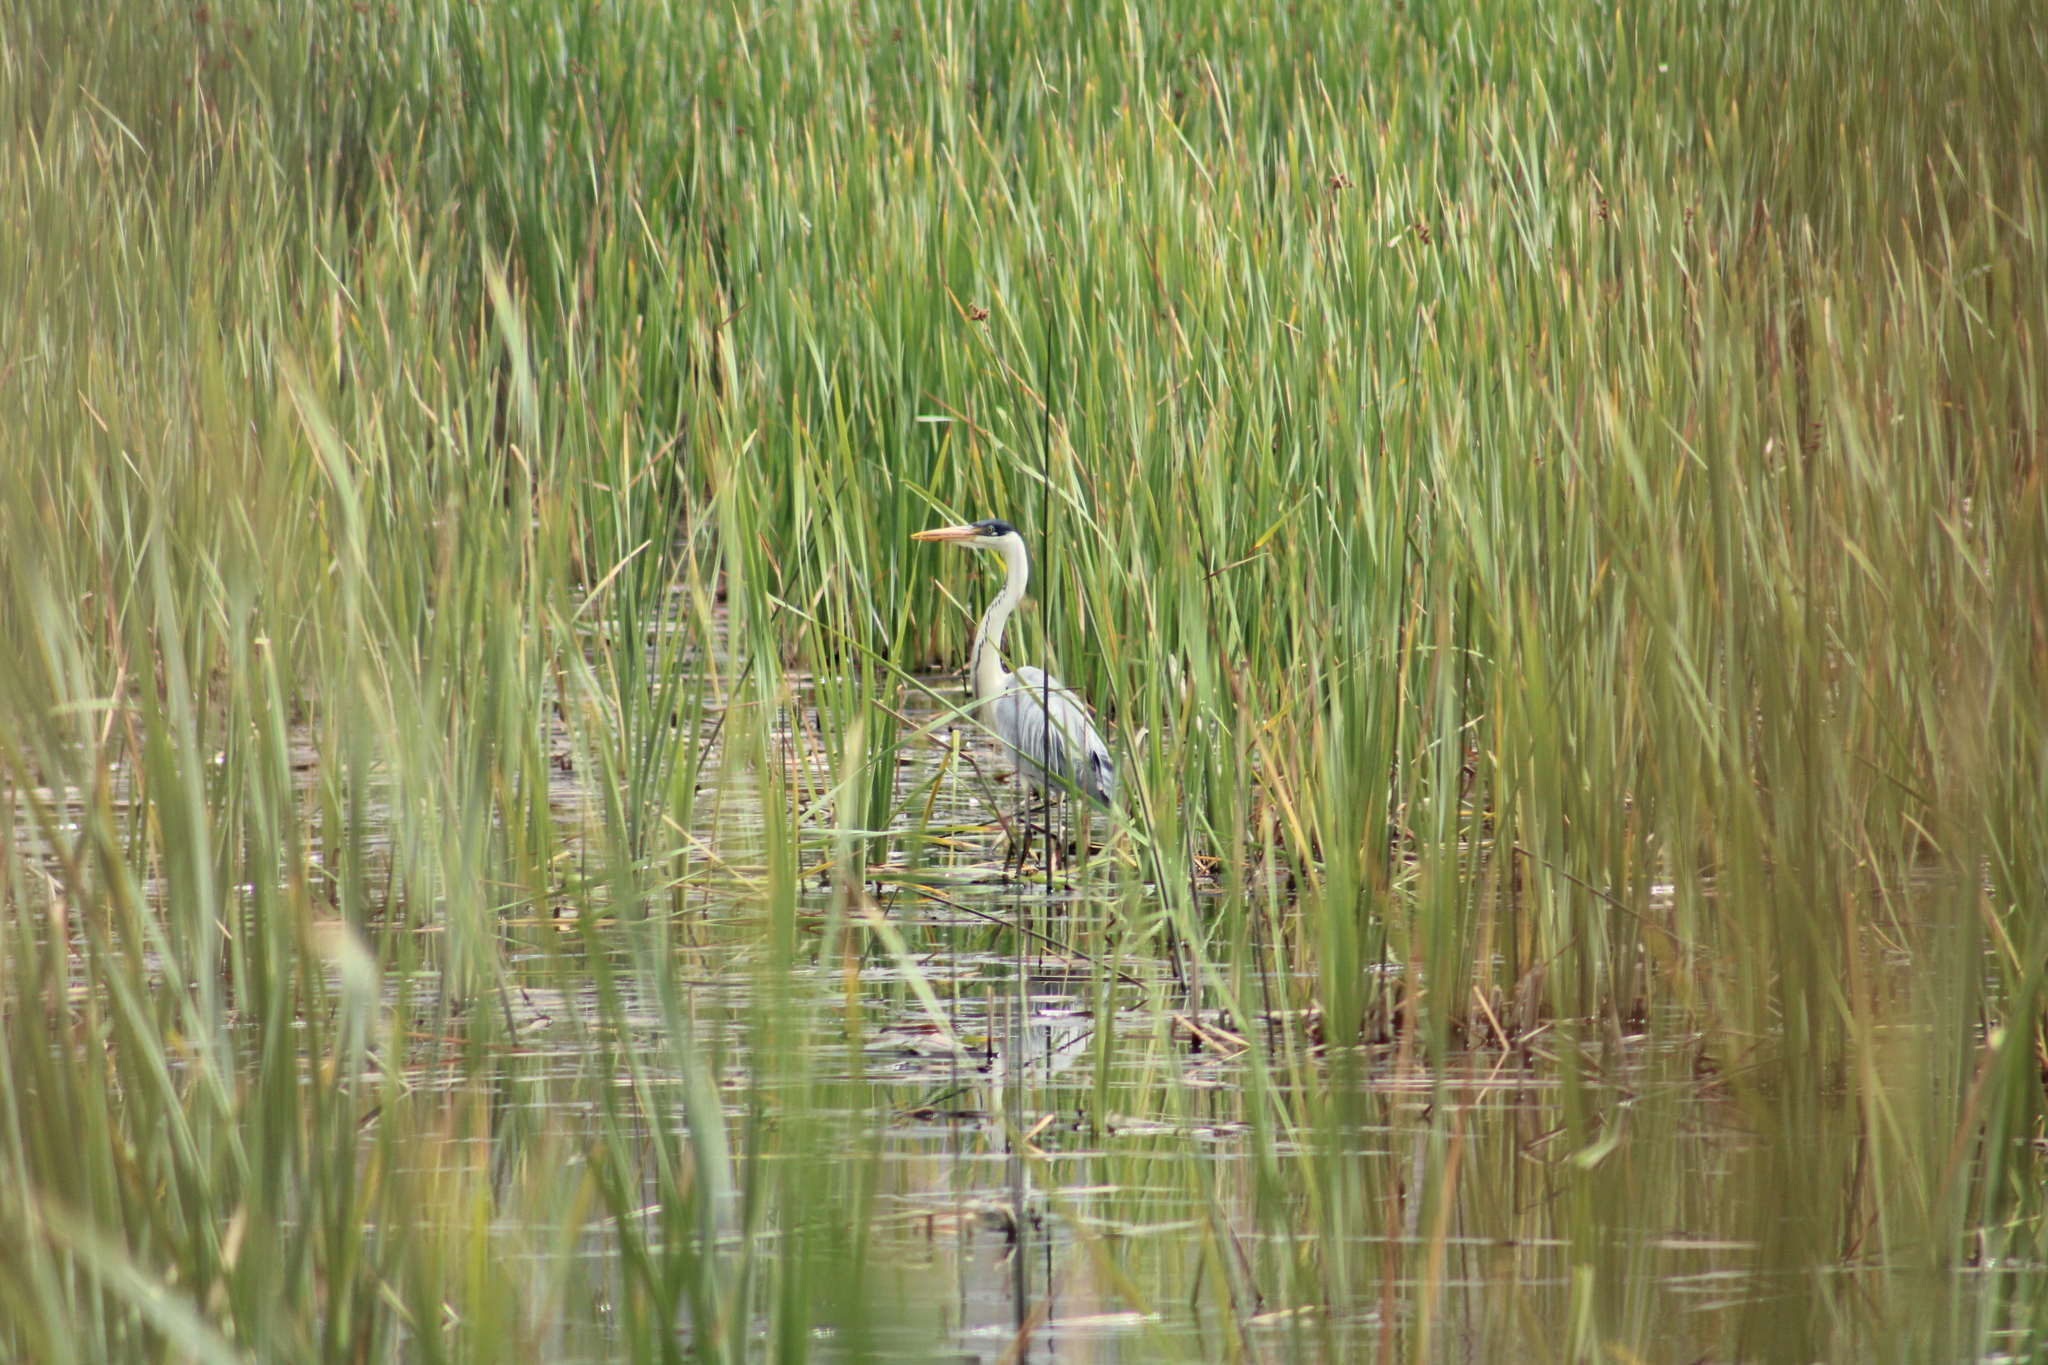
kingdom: Animalia
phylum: Chordata
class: Aves
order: Pelecaniformes
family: Ardeidae
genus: Ardea
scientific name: Ardea cocoi
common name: Cocoi heron
